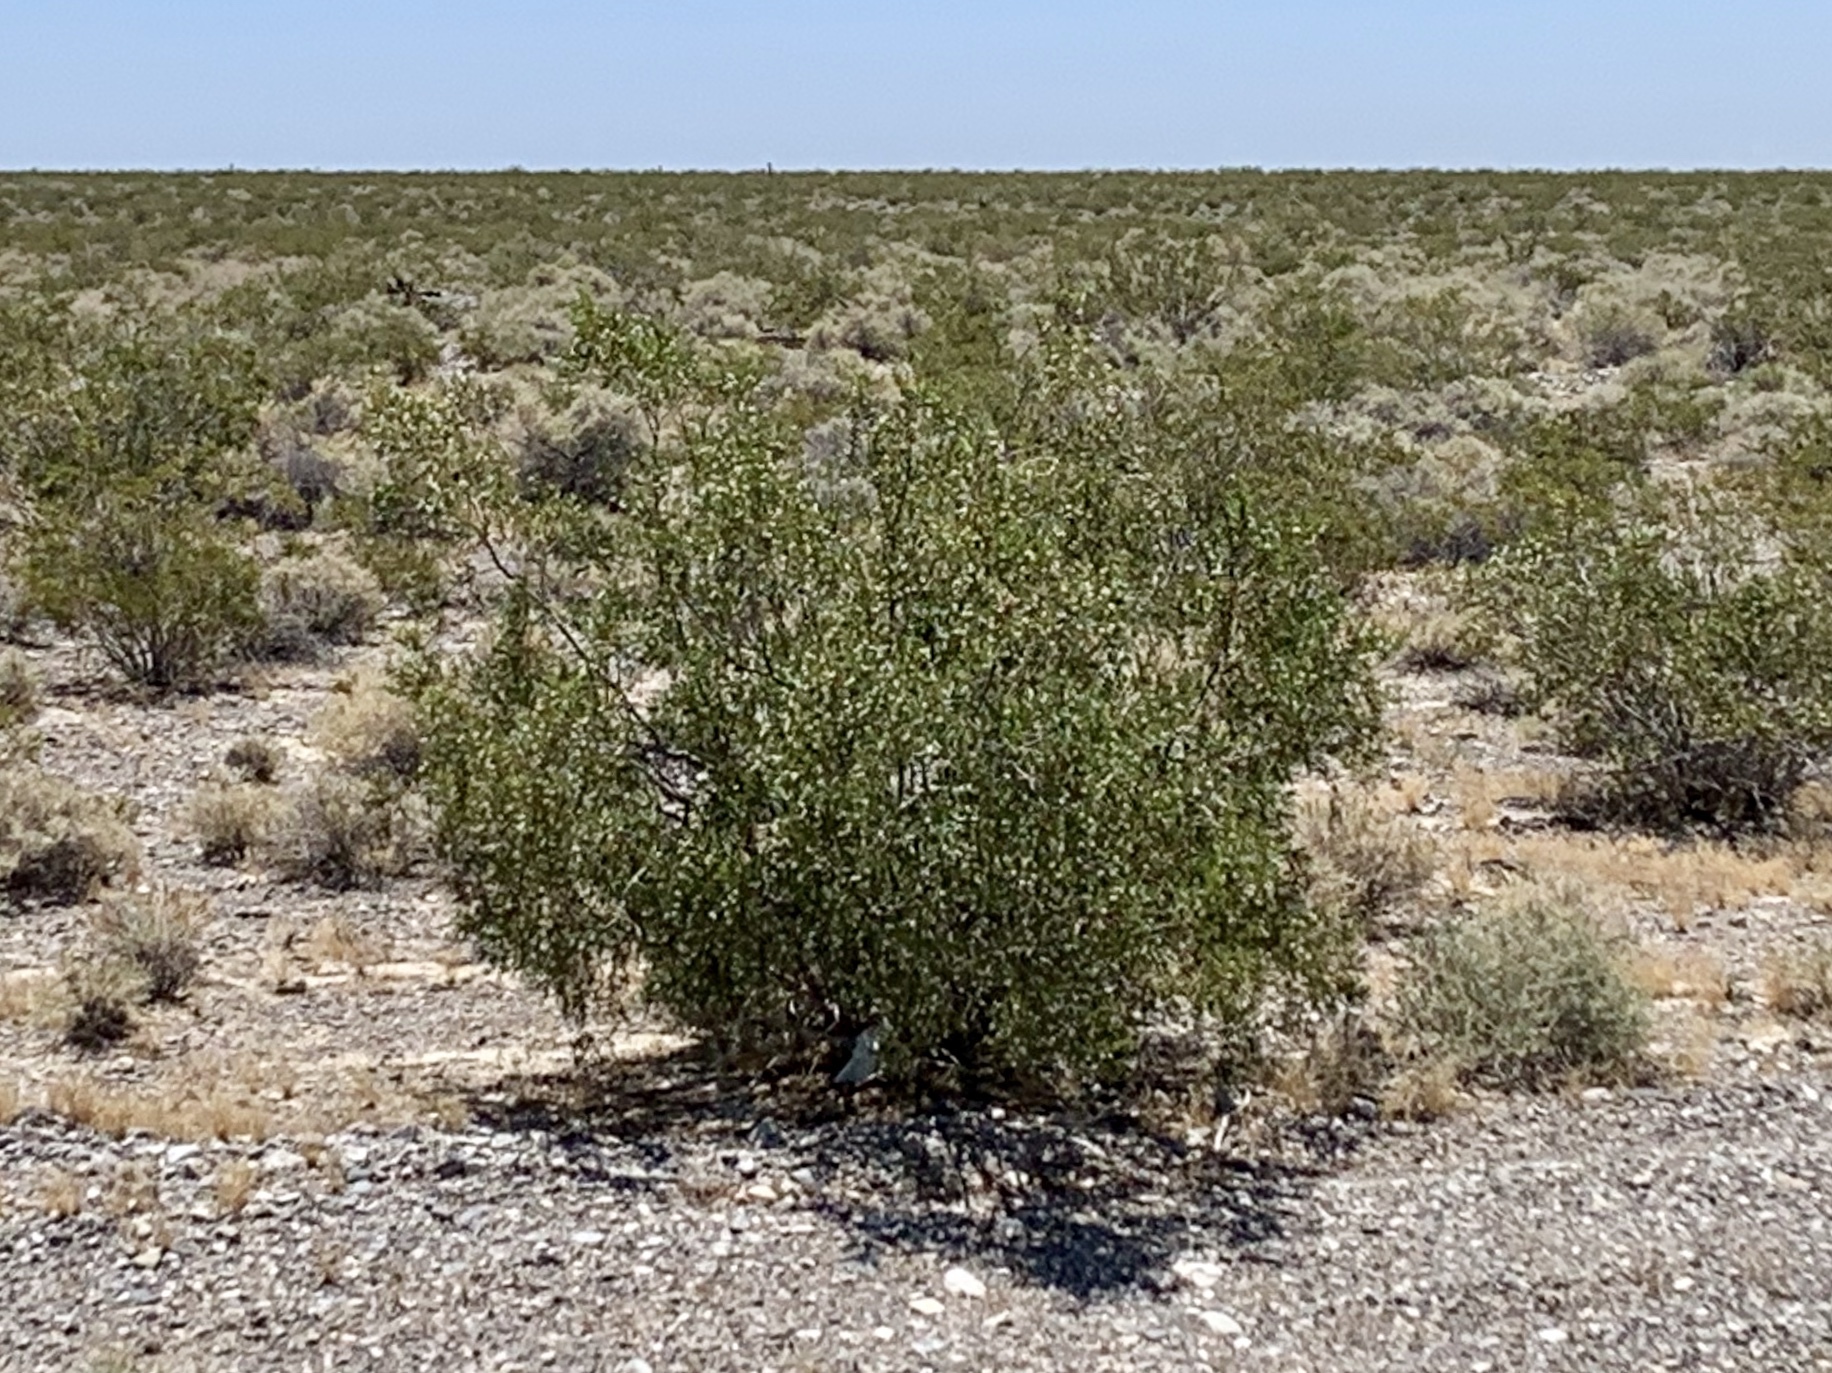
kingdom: Plantae
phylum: Tracheophyta
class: Magnoliopsida
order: Zygophyllales
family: Zygophyllaceae
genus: Larrea
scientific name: Larrea tridentata
